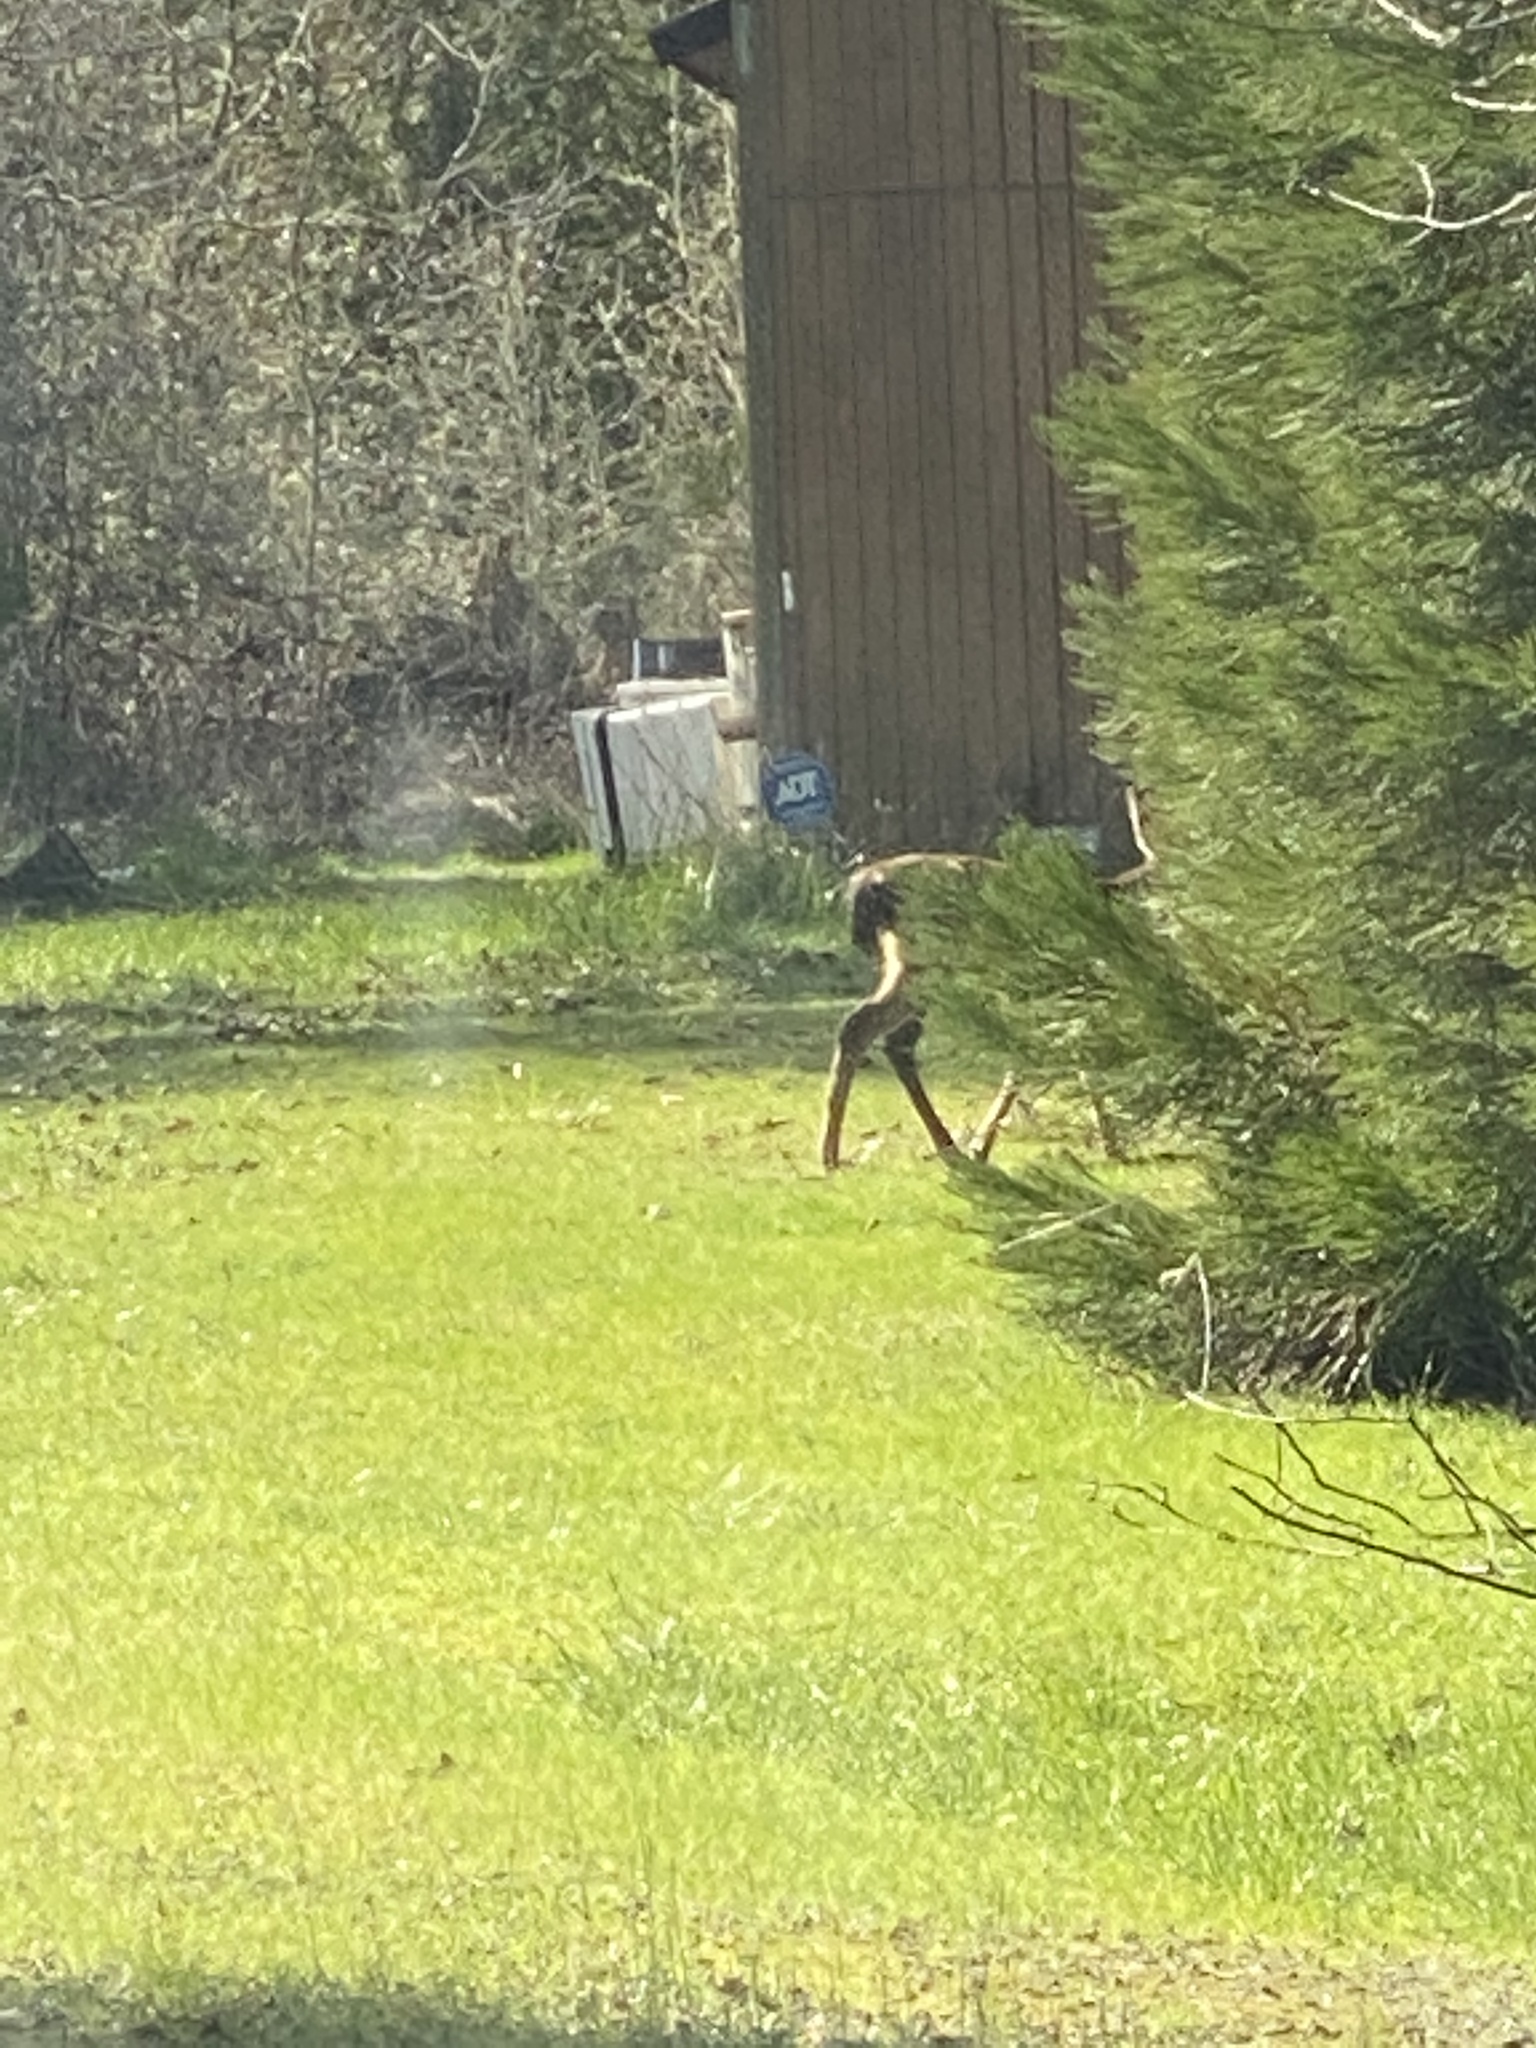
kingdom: Animalia
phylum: Chordata
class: Mammalia
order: Artiodactyla
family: Cervidae
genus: Odocoileus
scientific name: Odocoileus hemionus
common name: Mule deer
